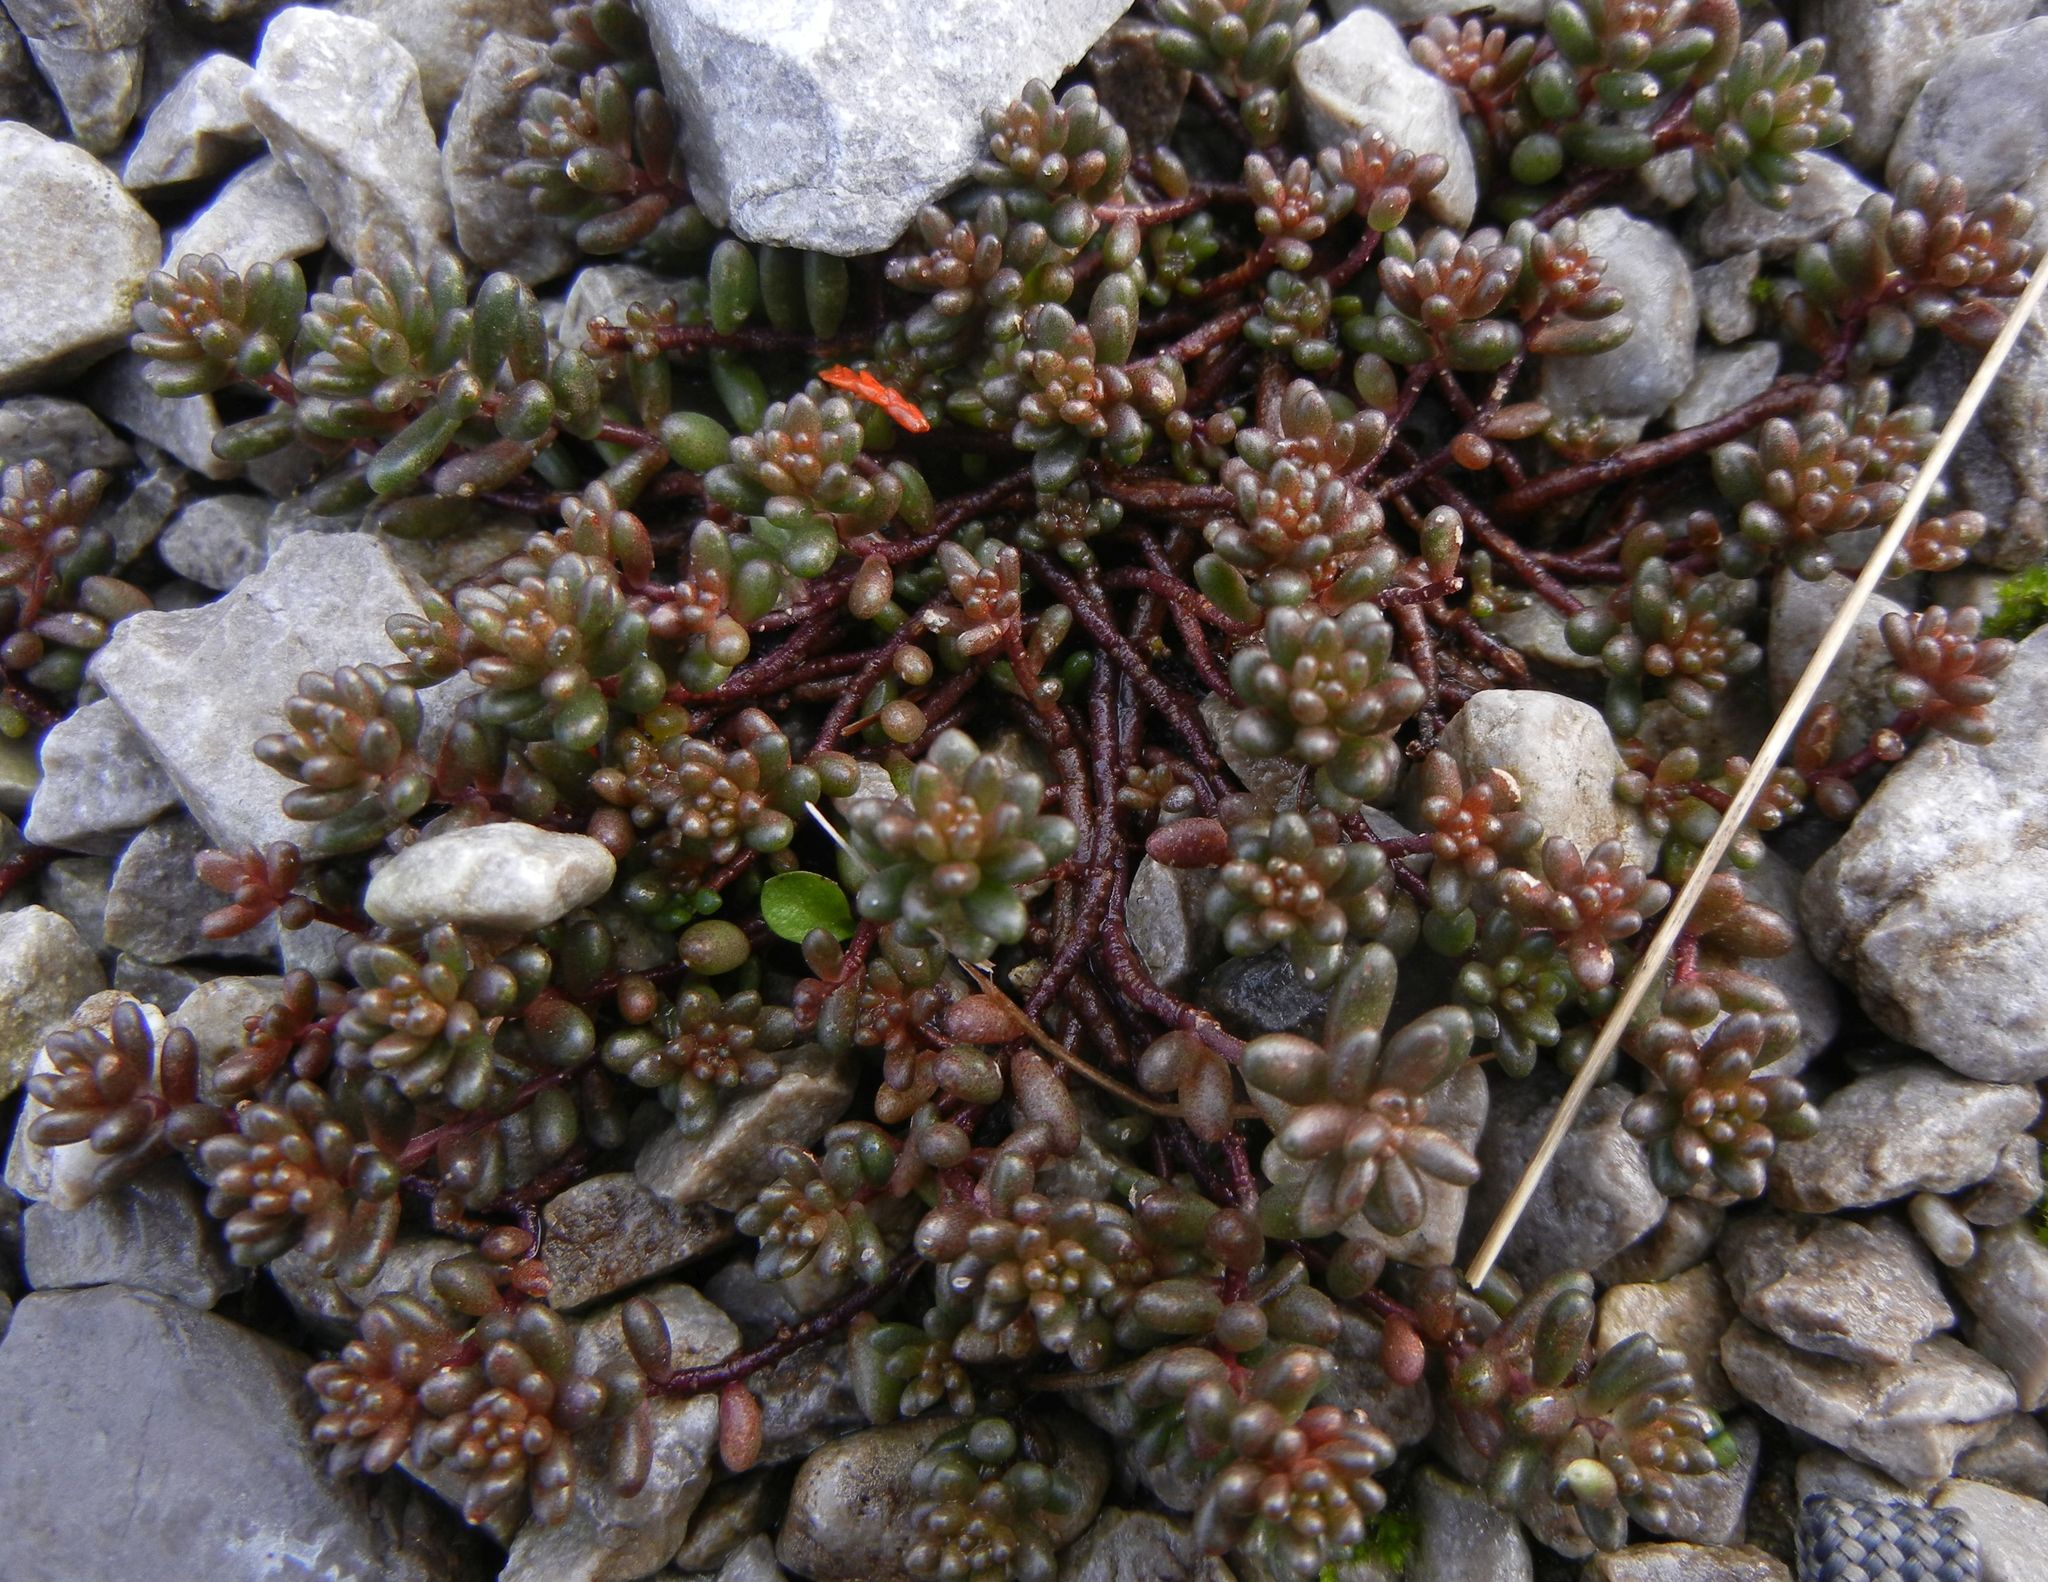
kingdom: Plantae
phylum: Tracheophyta
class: Magnoliopsida
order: Saxifragales
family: Crassulaceae
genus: Sedum
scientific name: Sedum album
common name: White stonecrop
